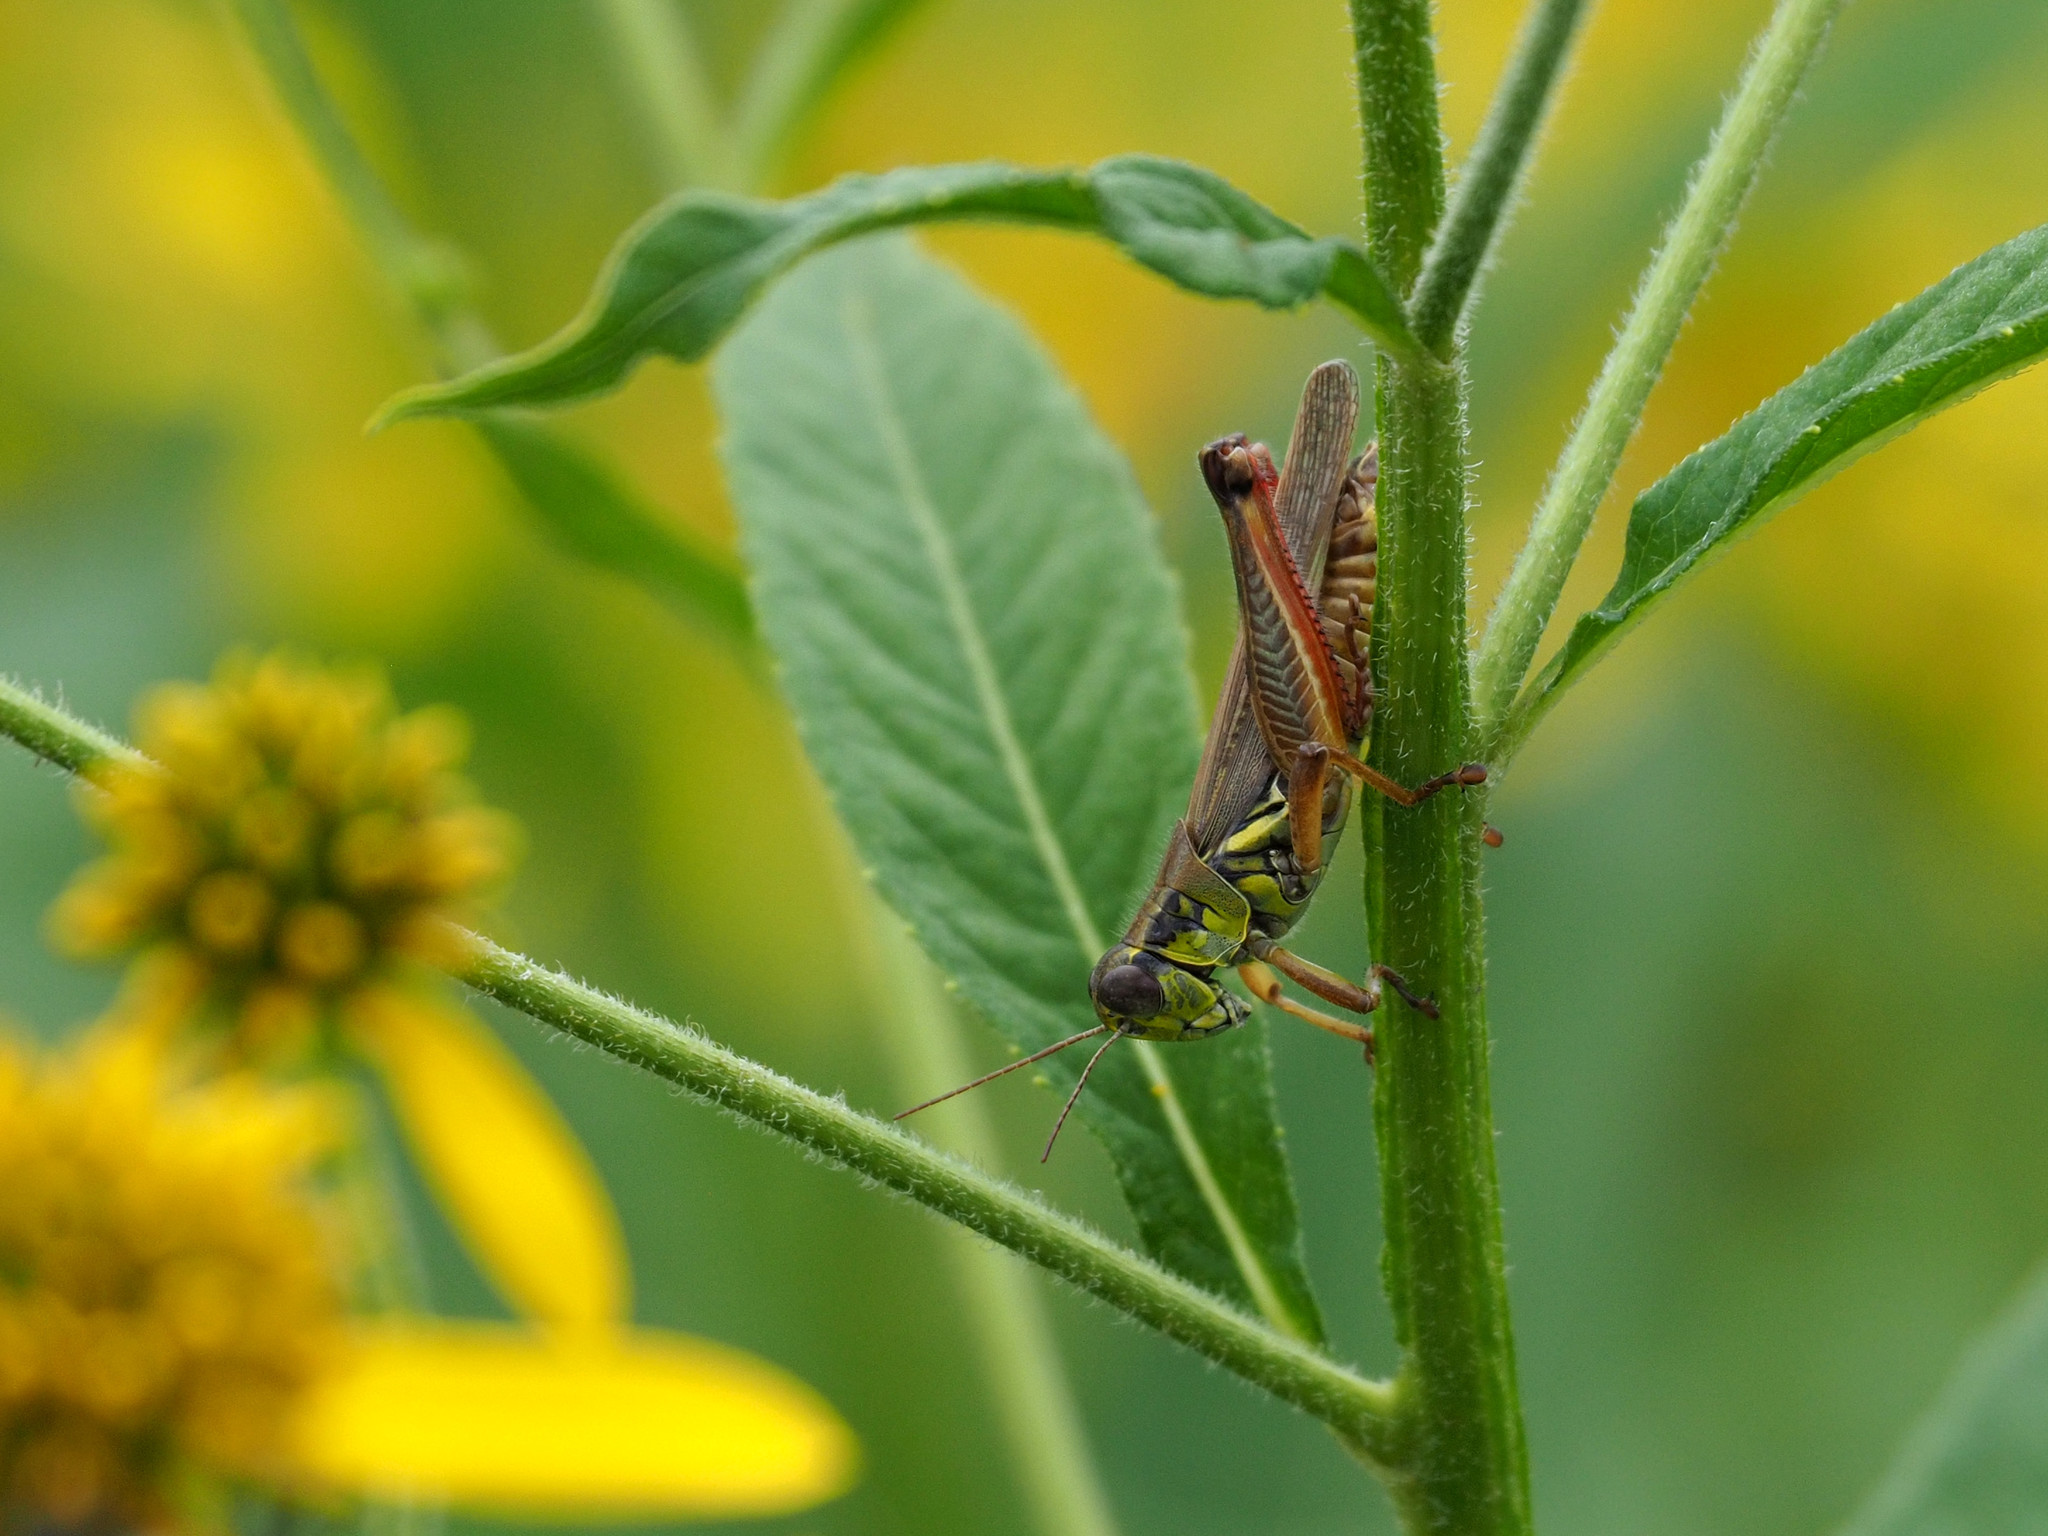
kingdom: Animalia
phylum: Arthropoda
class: Insecta
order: Orthoptera
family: Acrididae
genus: Melanoplus
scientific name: Melanoplus femurrubrum
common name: Red-legged grasshopper
